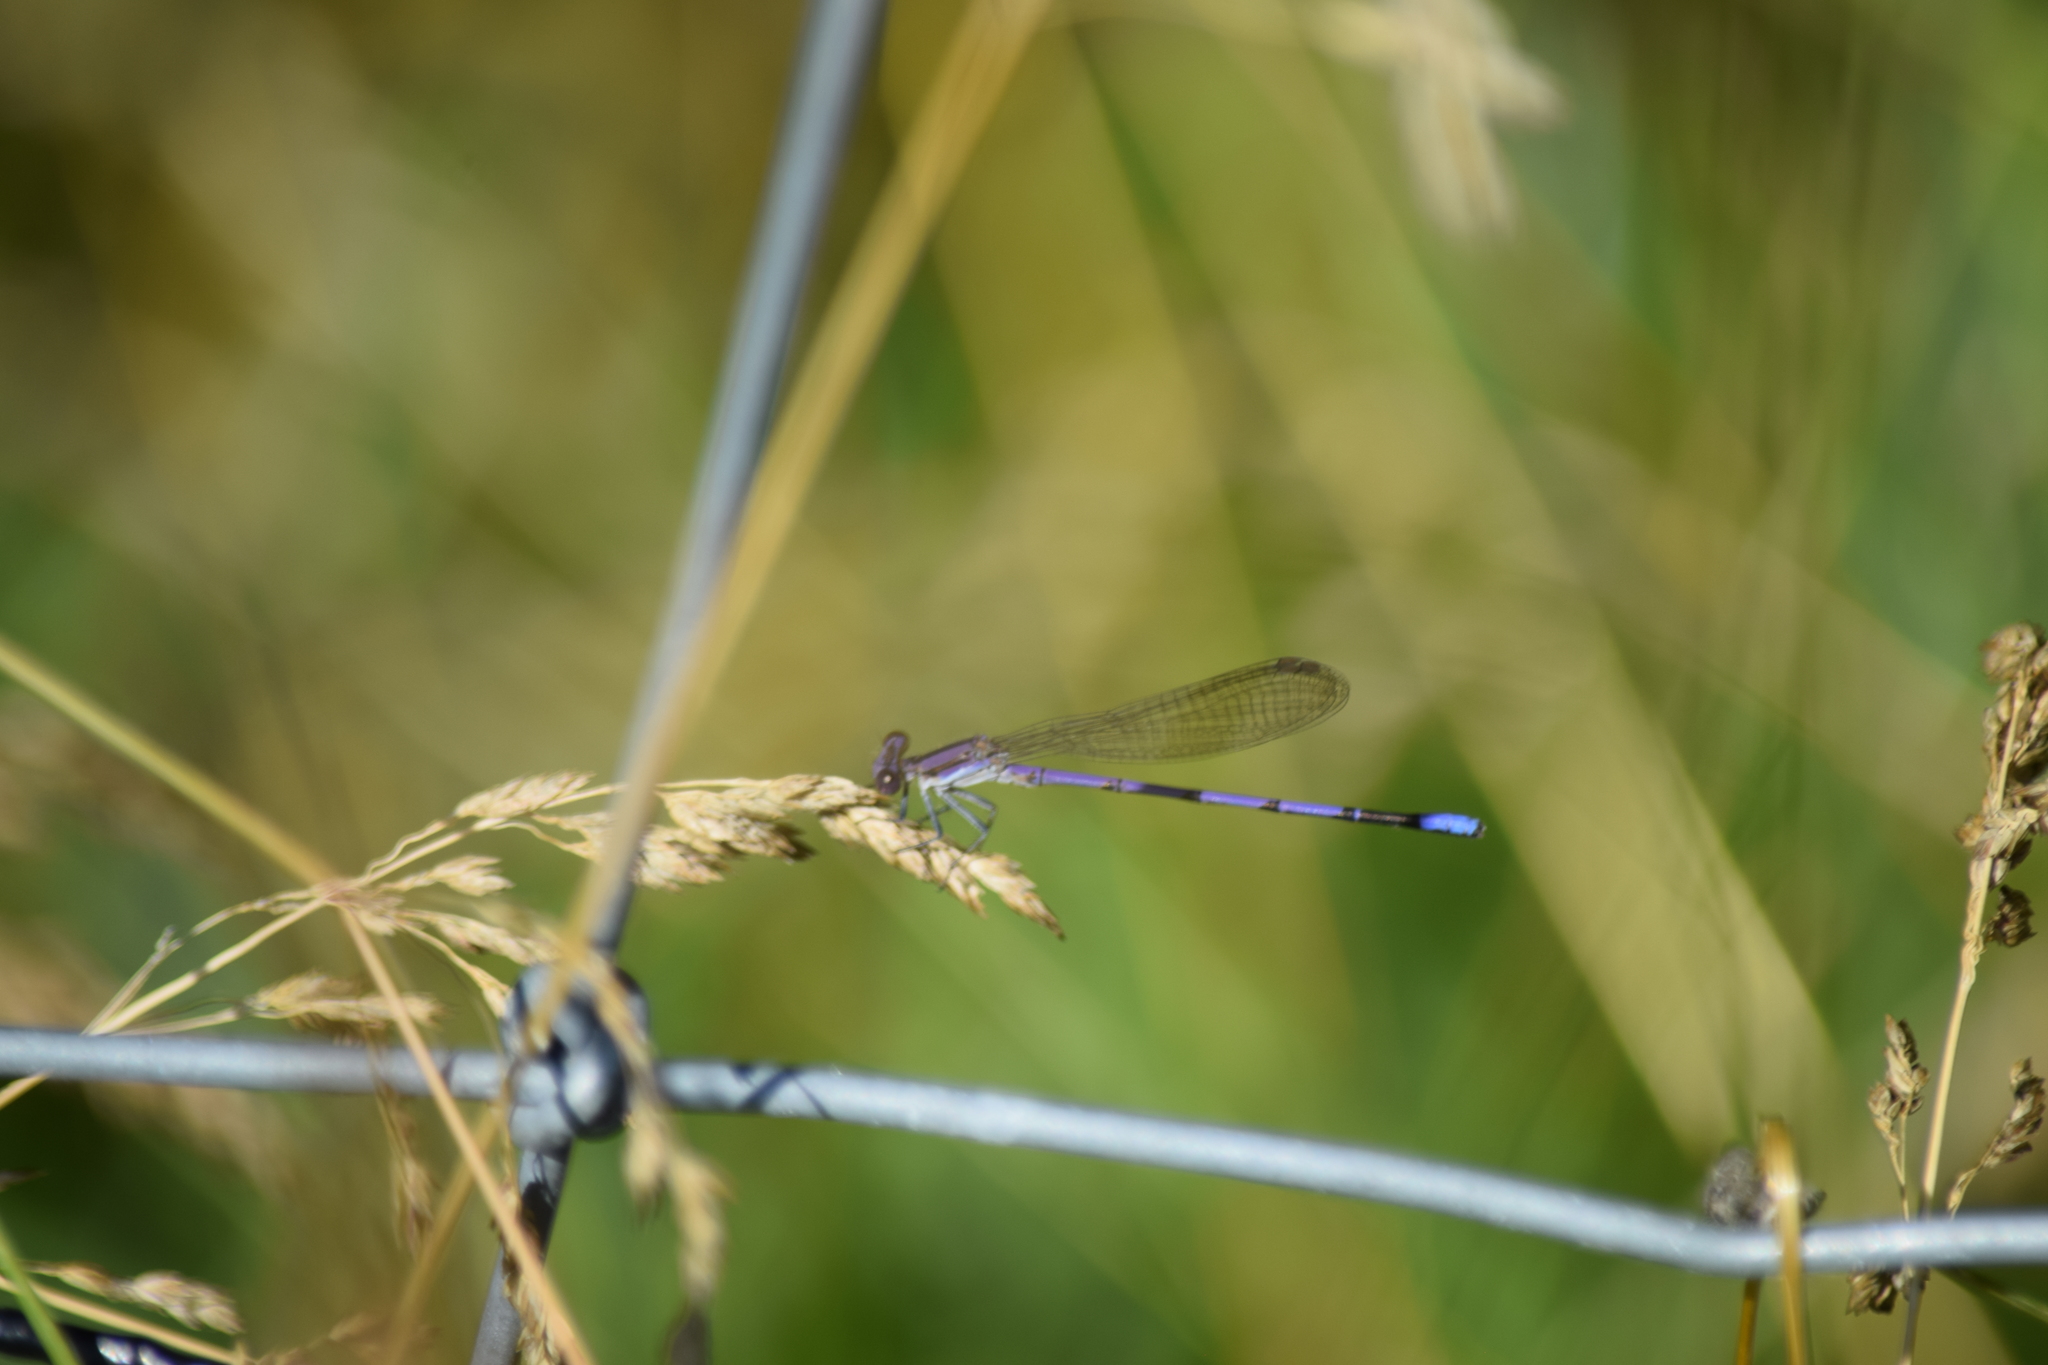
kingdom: Animalia
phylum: Arthropoda
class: Insecta
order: Odonata
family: Coenagrionidae
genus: Argia
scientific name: Argia fumipennis
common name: Variable dancer
